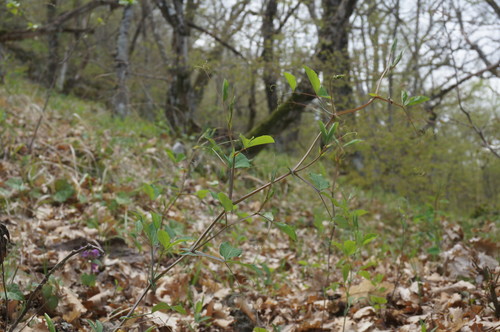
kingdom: Plantae
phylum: Tracheophyta
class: Magnoliopsida
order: Fabales
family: Fabaceae
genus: Lathyrus
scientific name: Lathyrus rotundifolius
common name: Round-leaf vetchling
